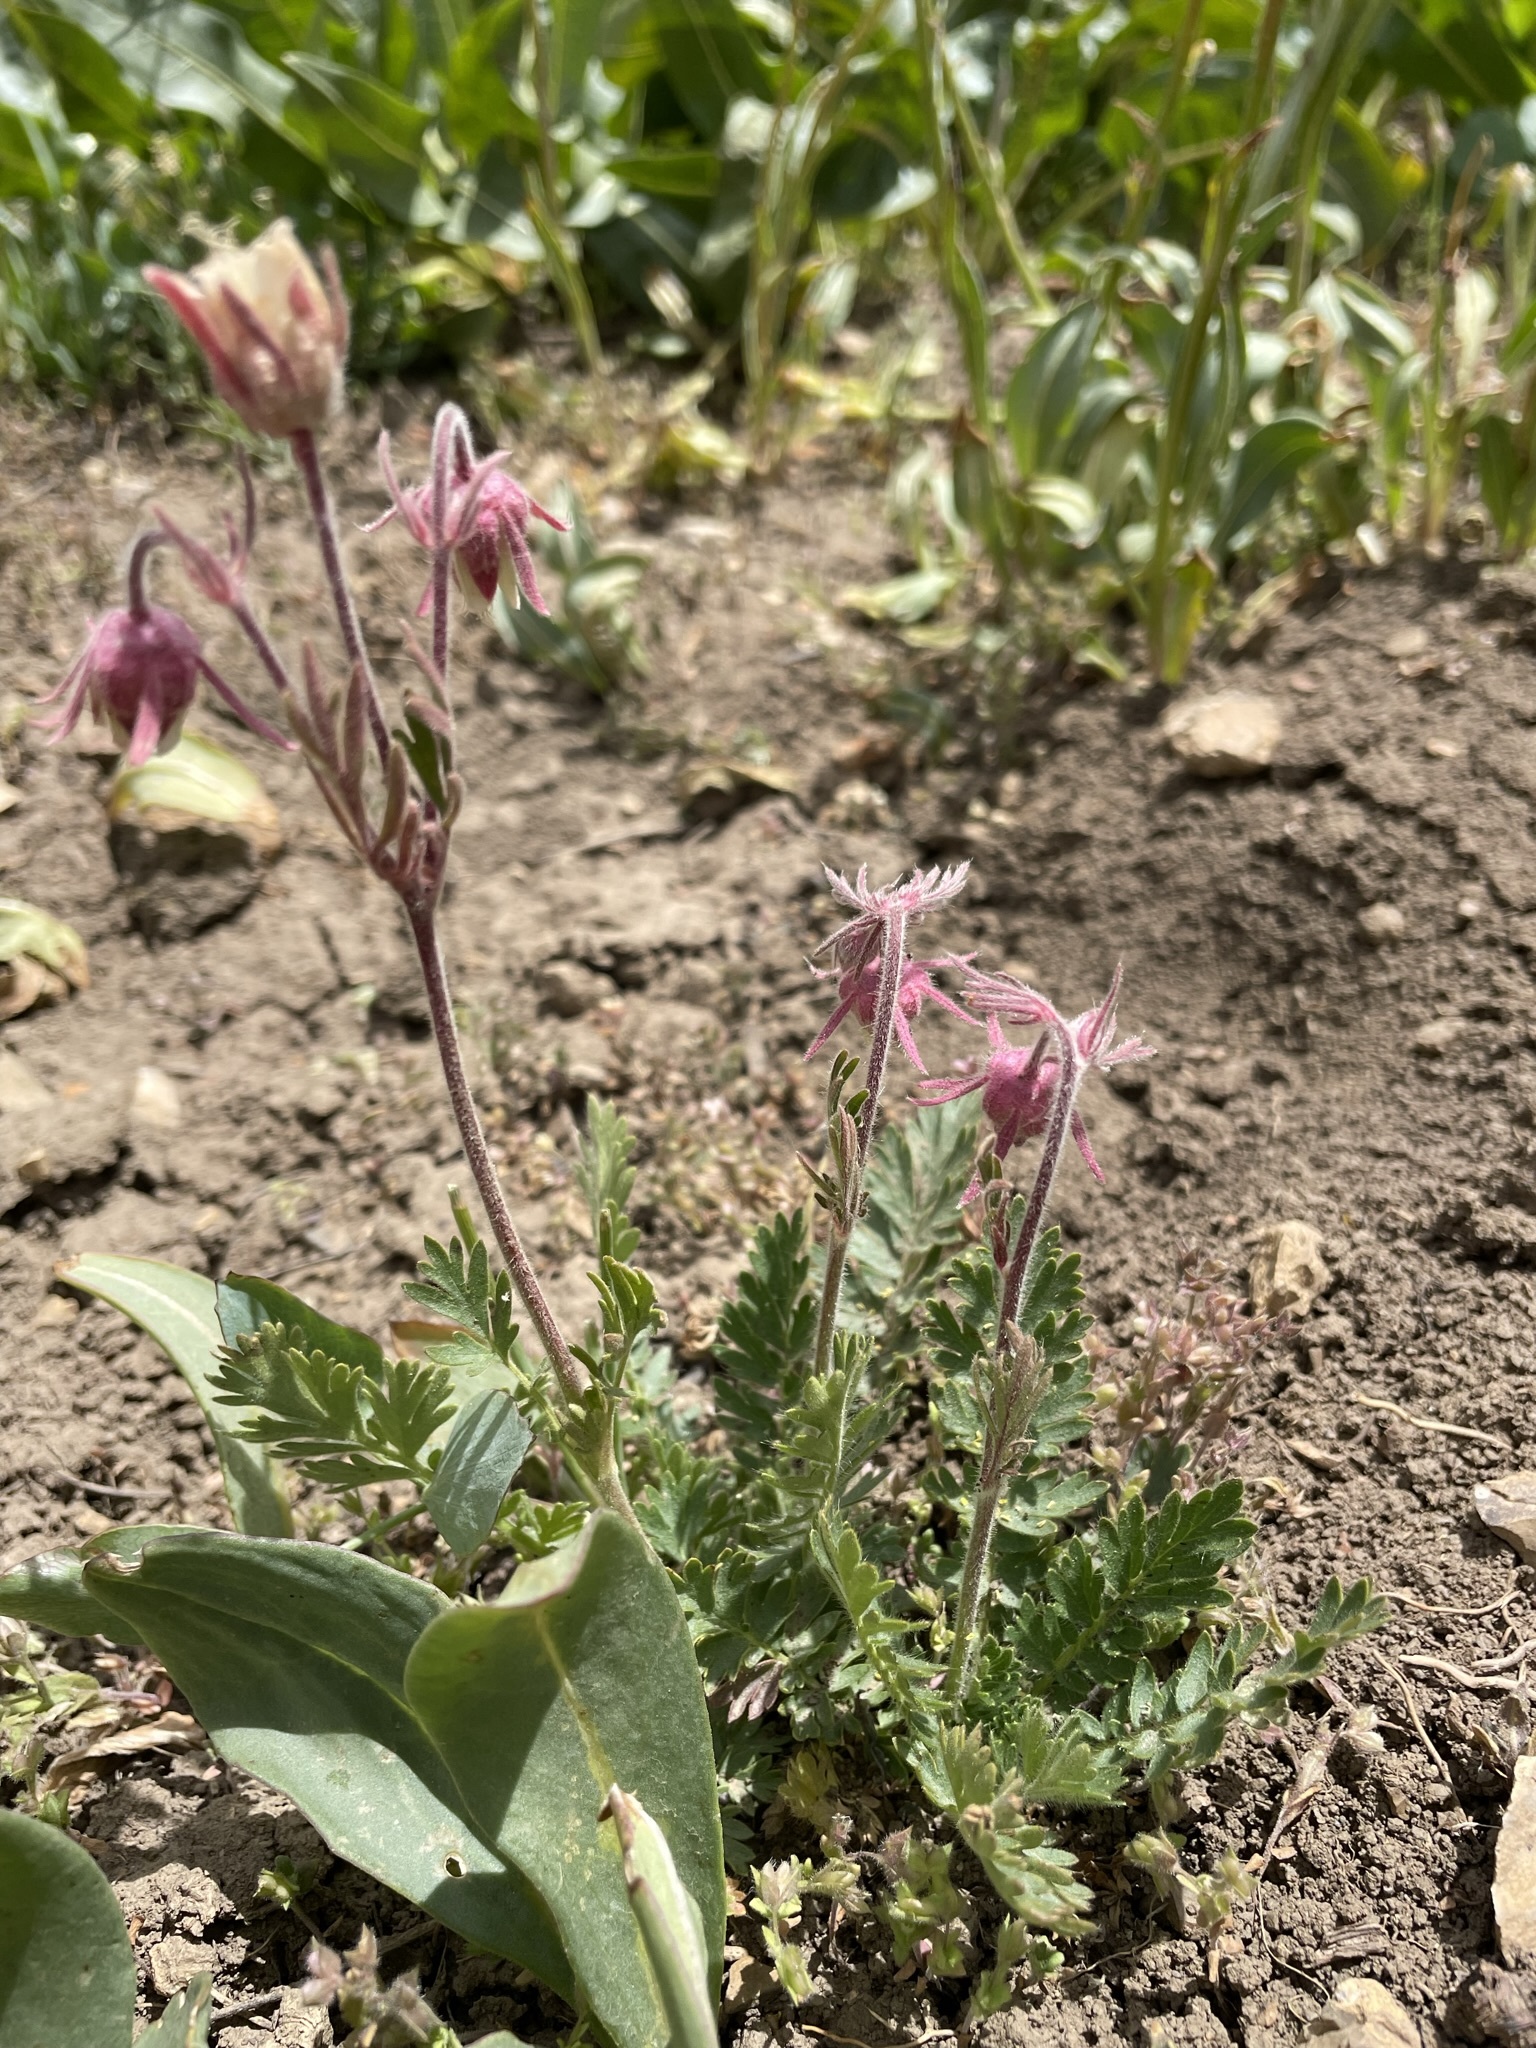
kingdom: Plantae
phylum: Tracheophyta
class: Magnoliopsida
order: Rosales
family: Rosaceae
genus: Geum
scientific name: Geum triflorum
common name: Old man's whiskers
